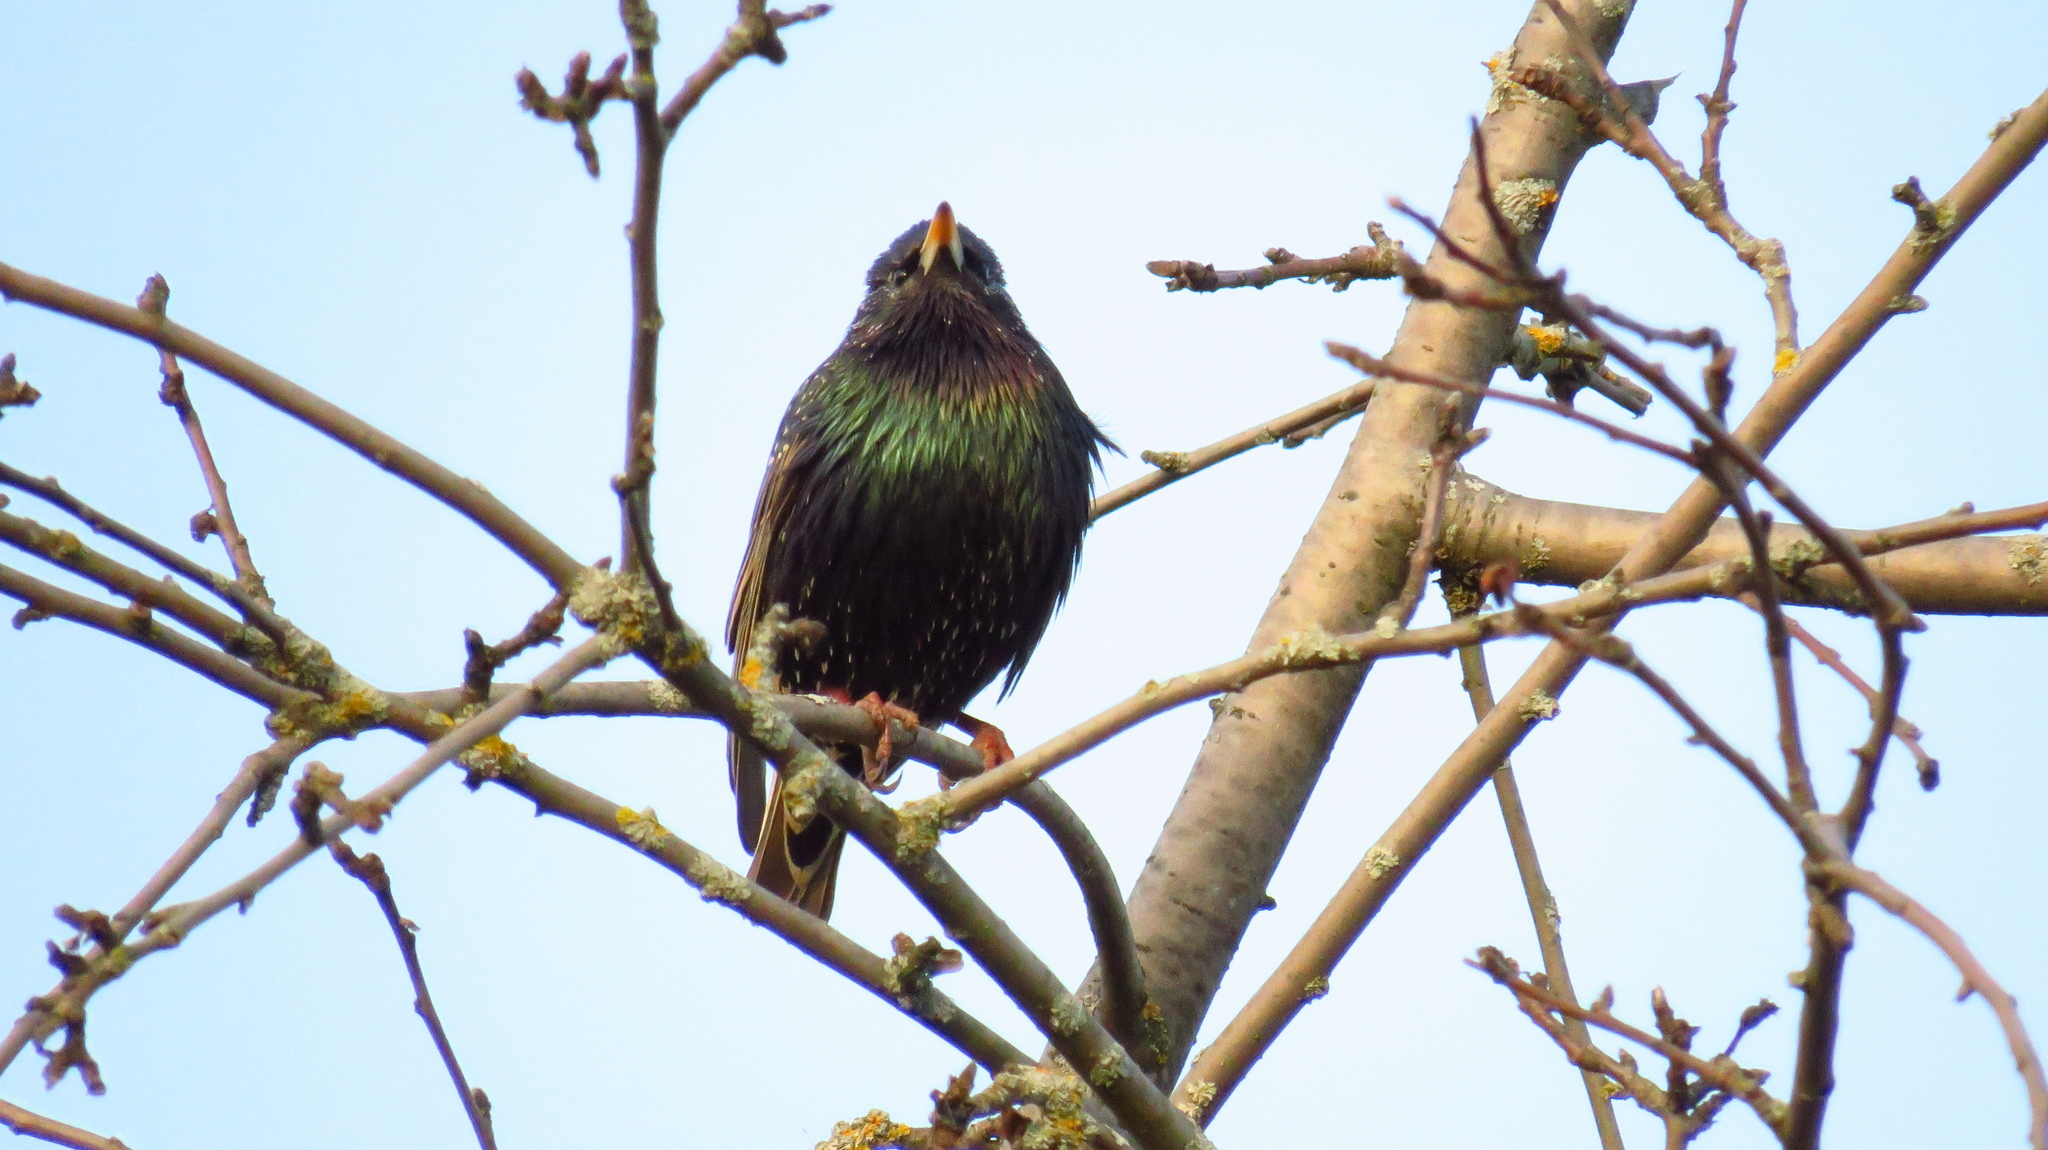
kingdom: Animalia
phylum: Chordata
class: Aves
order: Passeriformes
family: Sturnidae
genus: Sturnus
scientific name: Sturnus vulgaris
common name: Common starling
